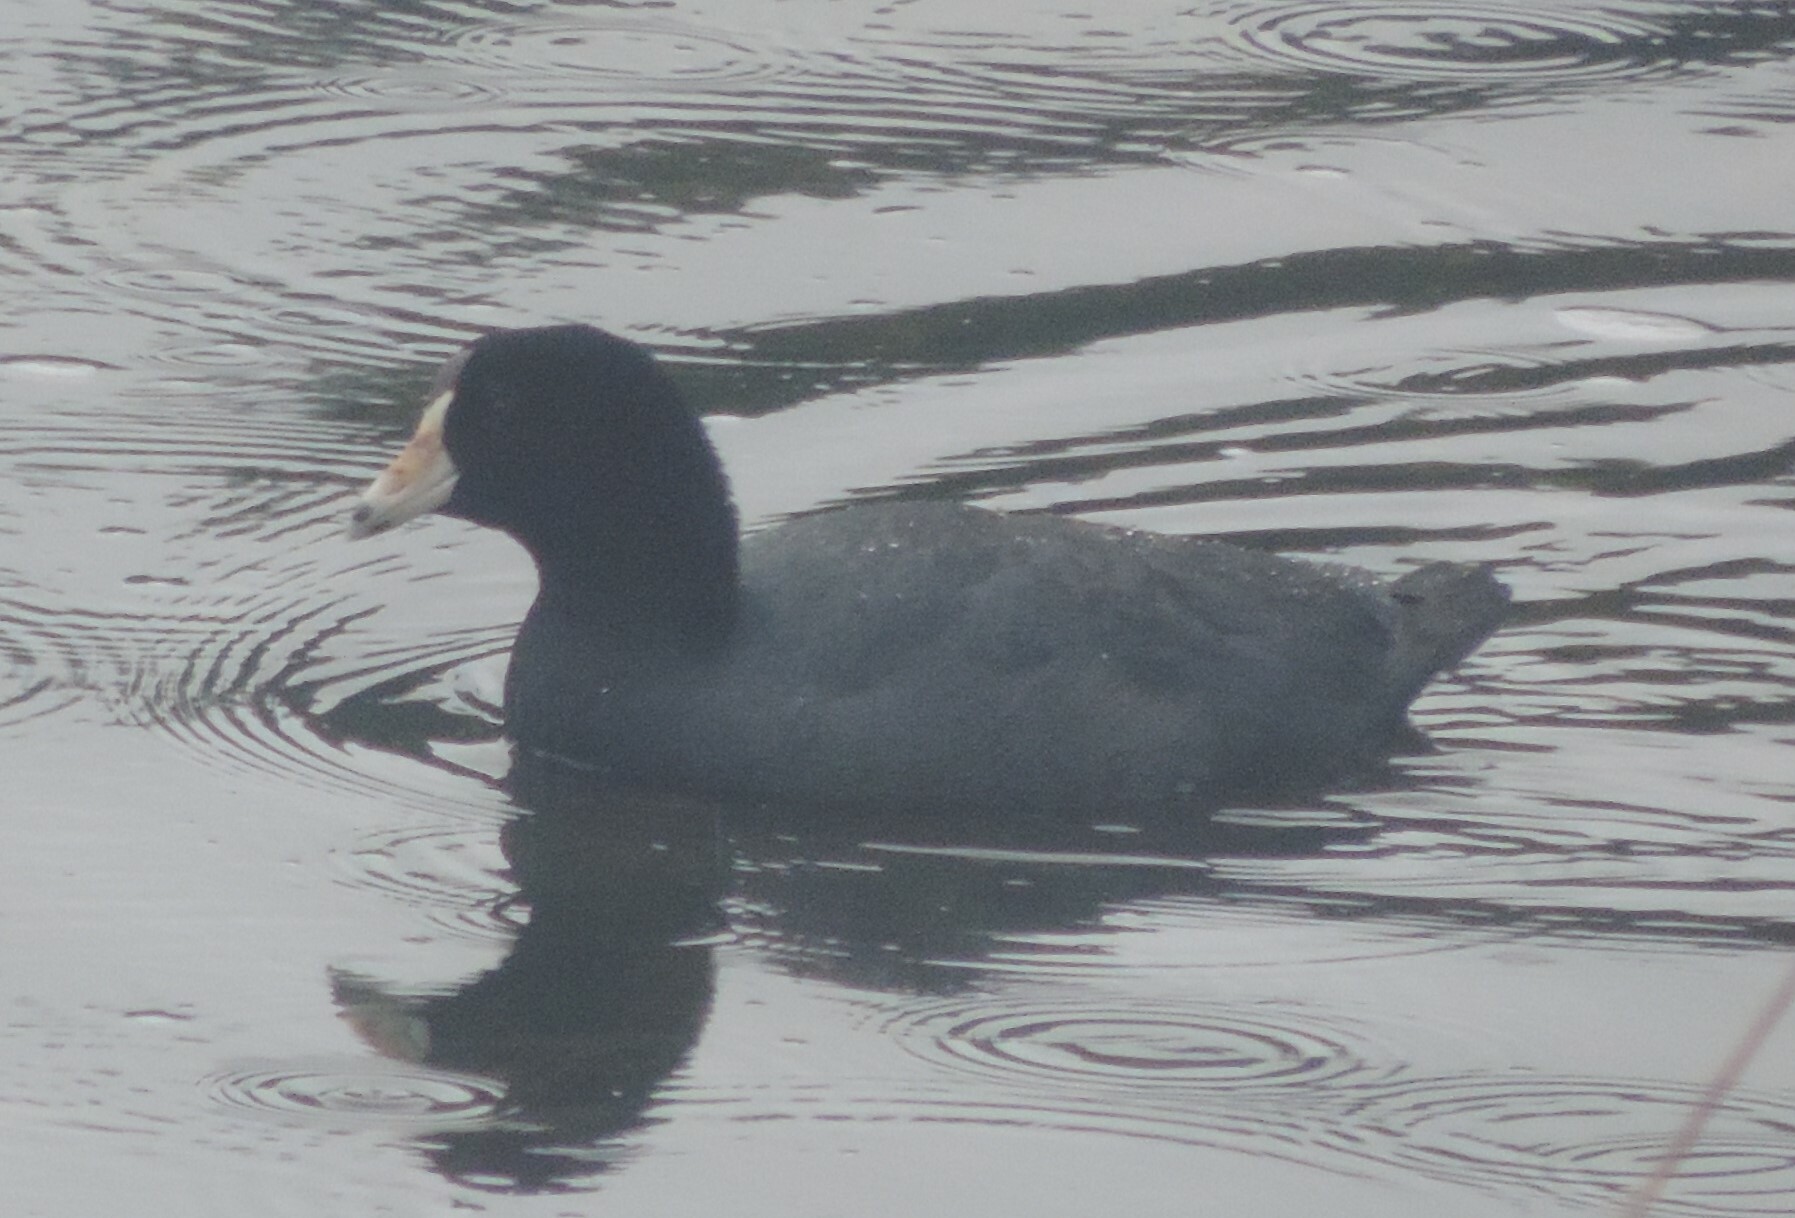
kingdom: Animalia
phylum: Chordata
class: Aves
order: Gruiformes
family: Rallidae
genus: Fulica
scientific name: Fulica americana
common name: American coot
